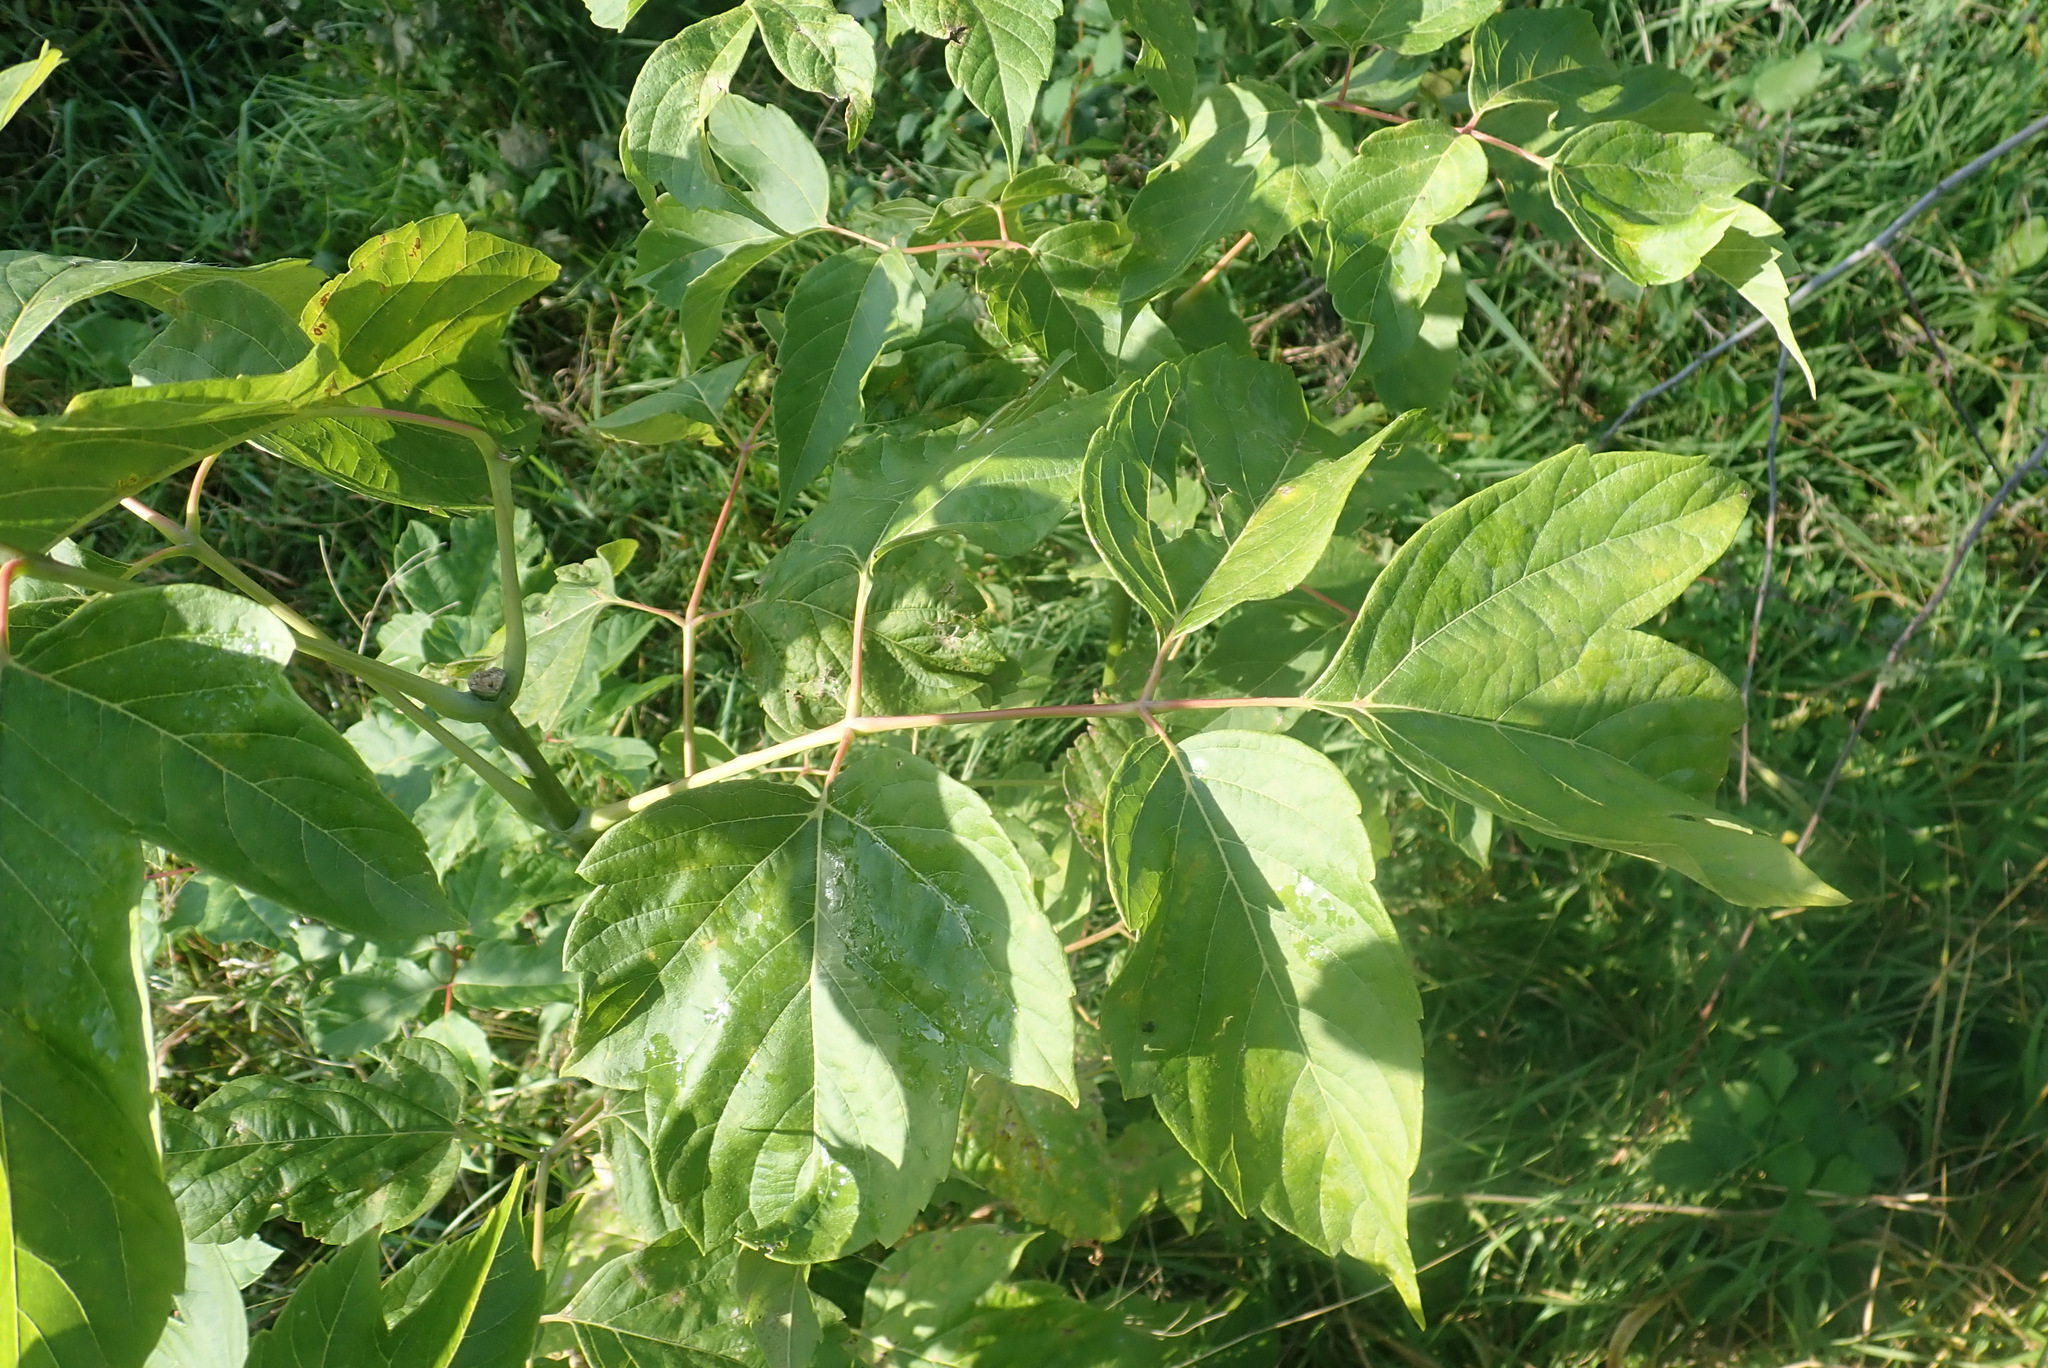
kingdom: Plantae
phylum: Tracheophyta
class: Magnoliopsida
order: Sapindales
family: Sapindaceae
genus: Acer
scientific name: Acer negundo
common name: Ashleaf maple
